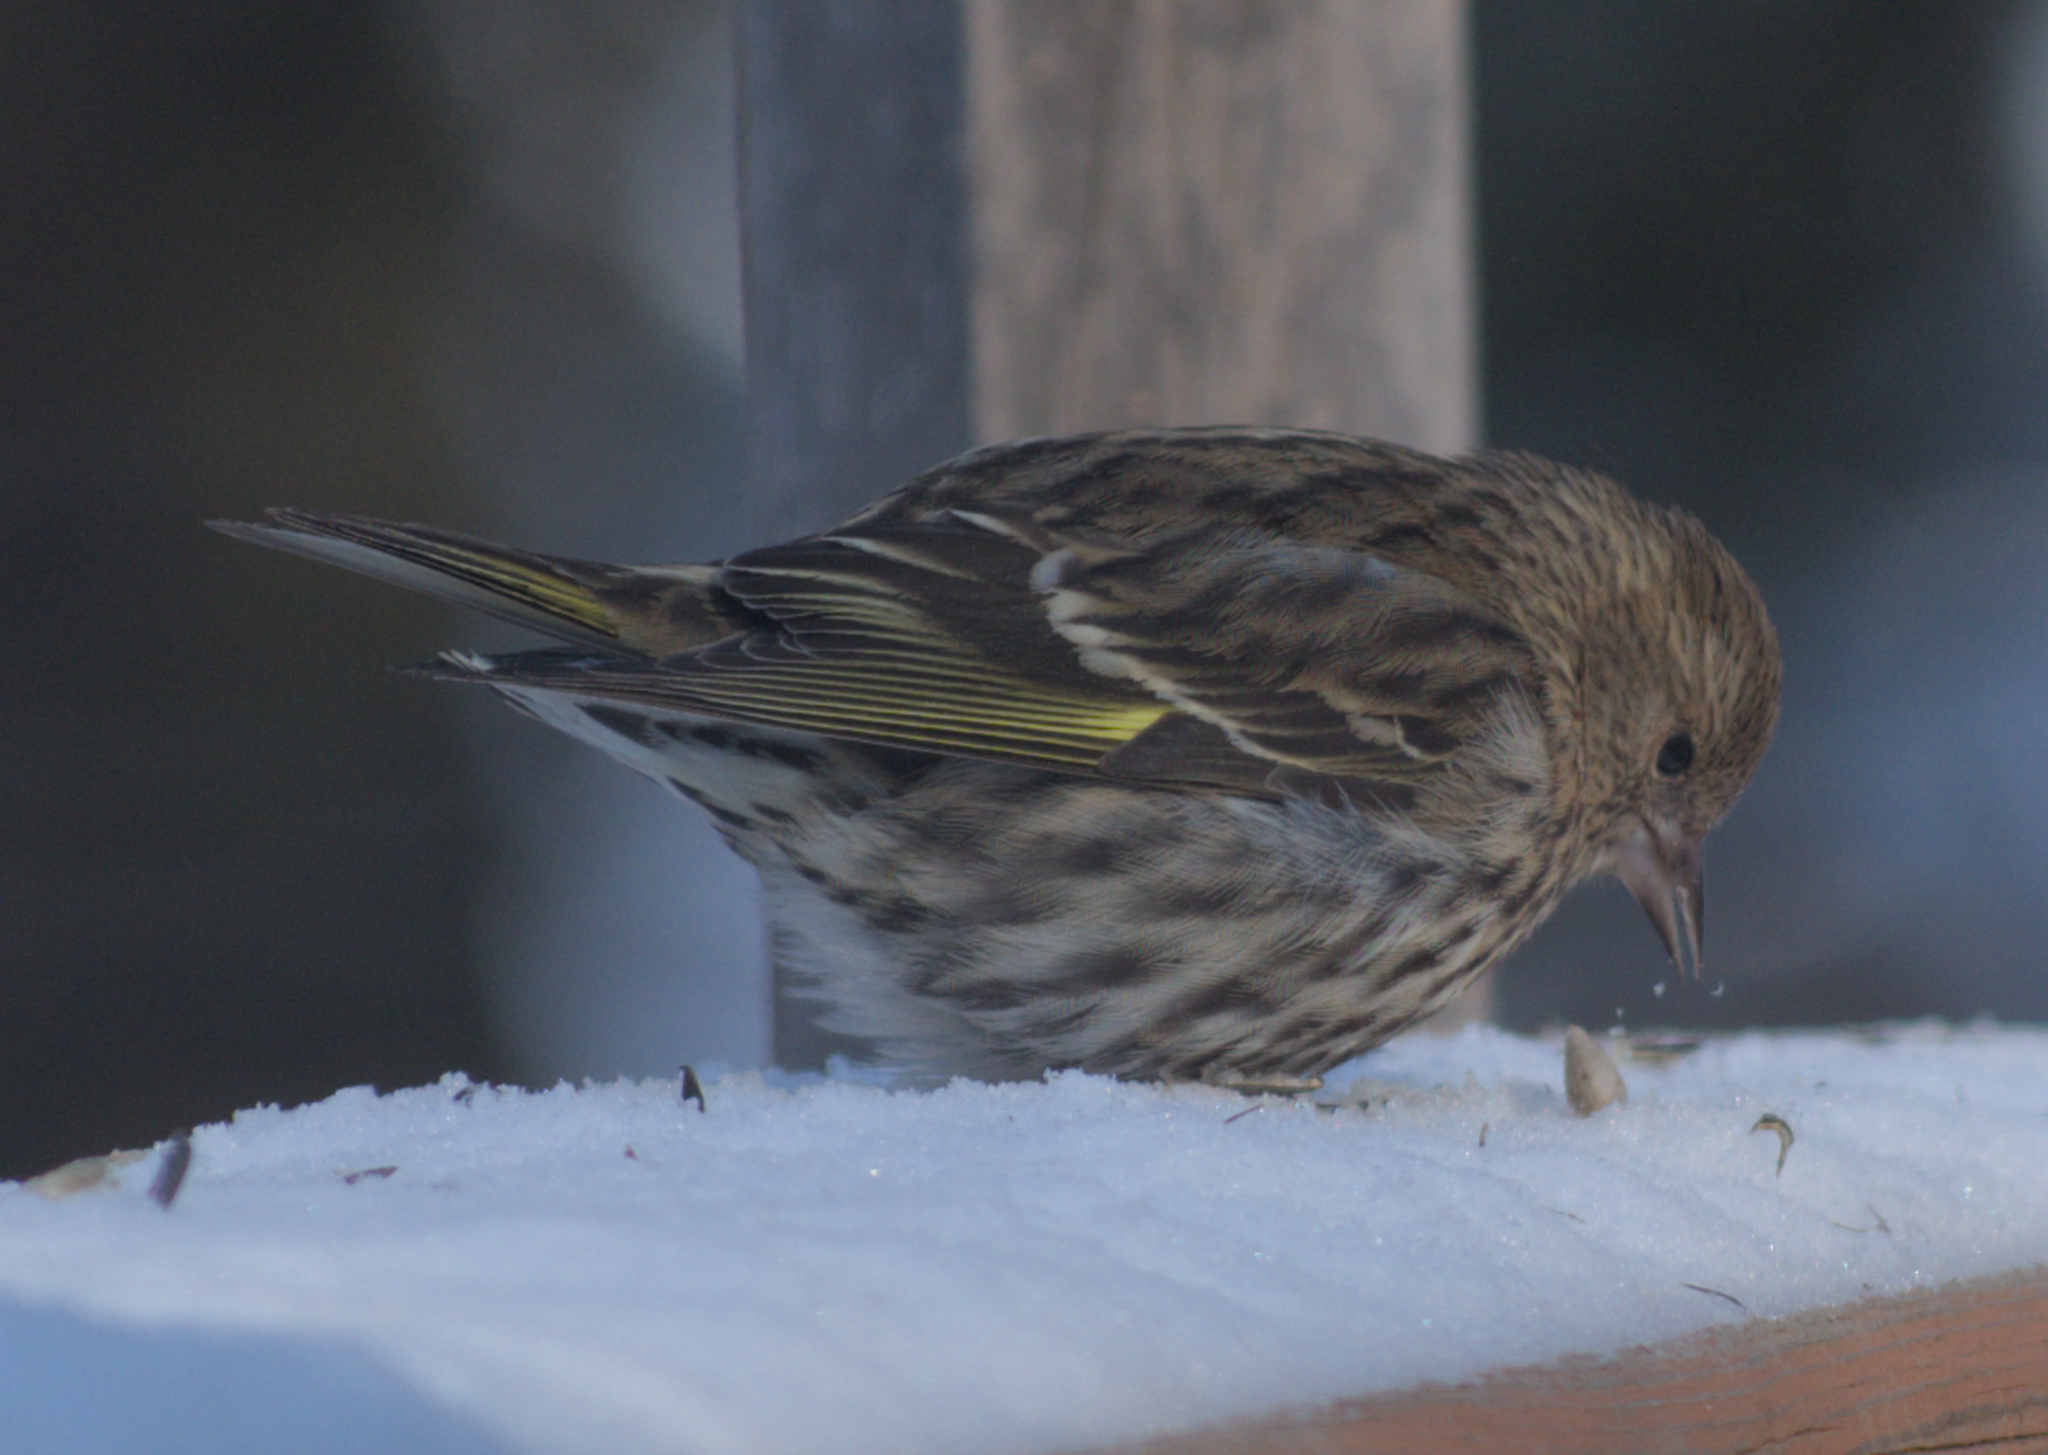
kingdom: Animalia
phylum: Chordata
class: Aves
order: Passeriformes
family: Fringillidae
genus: Spinus
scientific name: Spinus pinus
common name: Pine siskin
